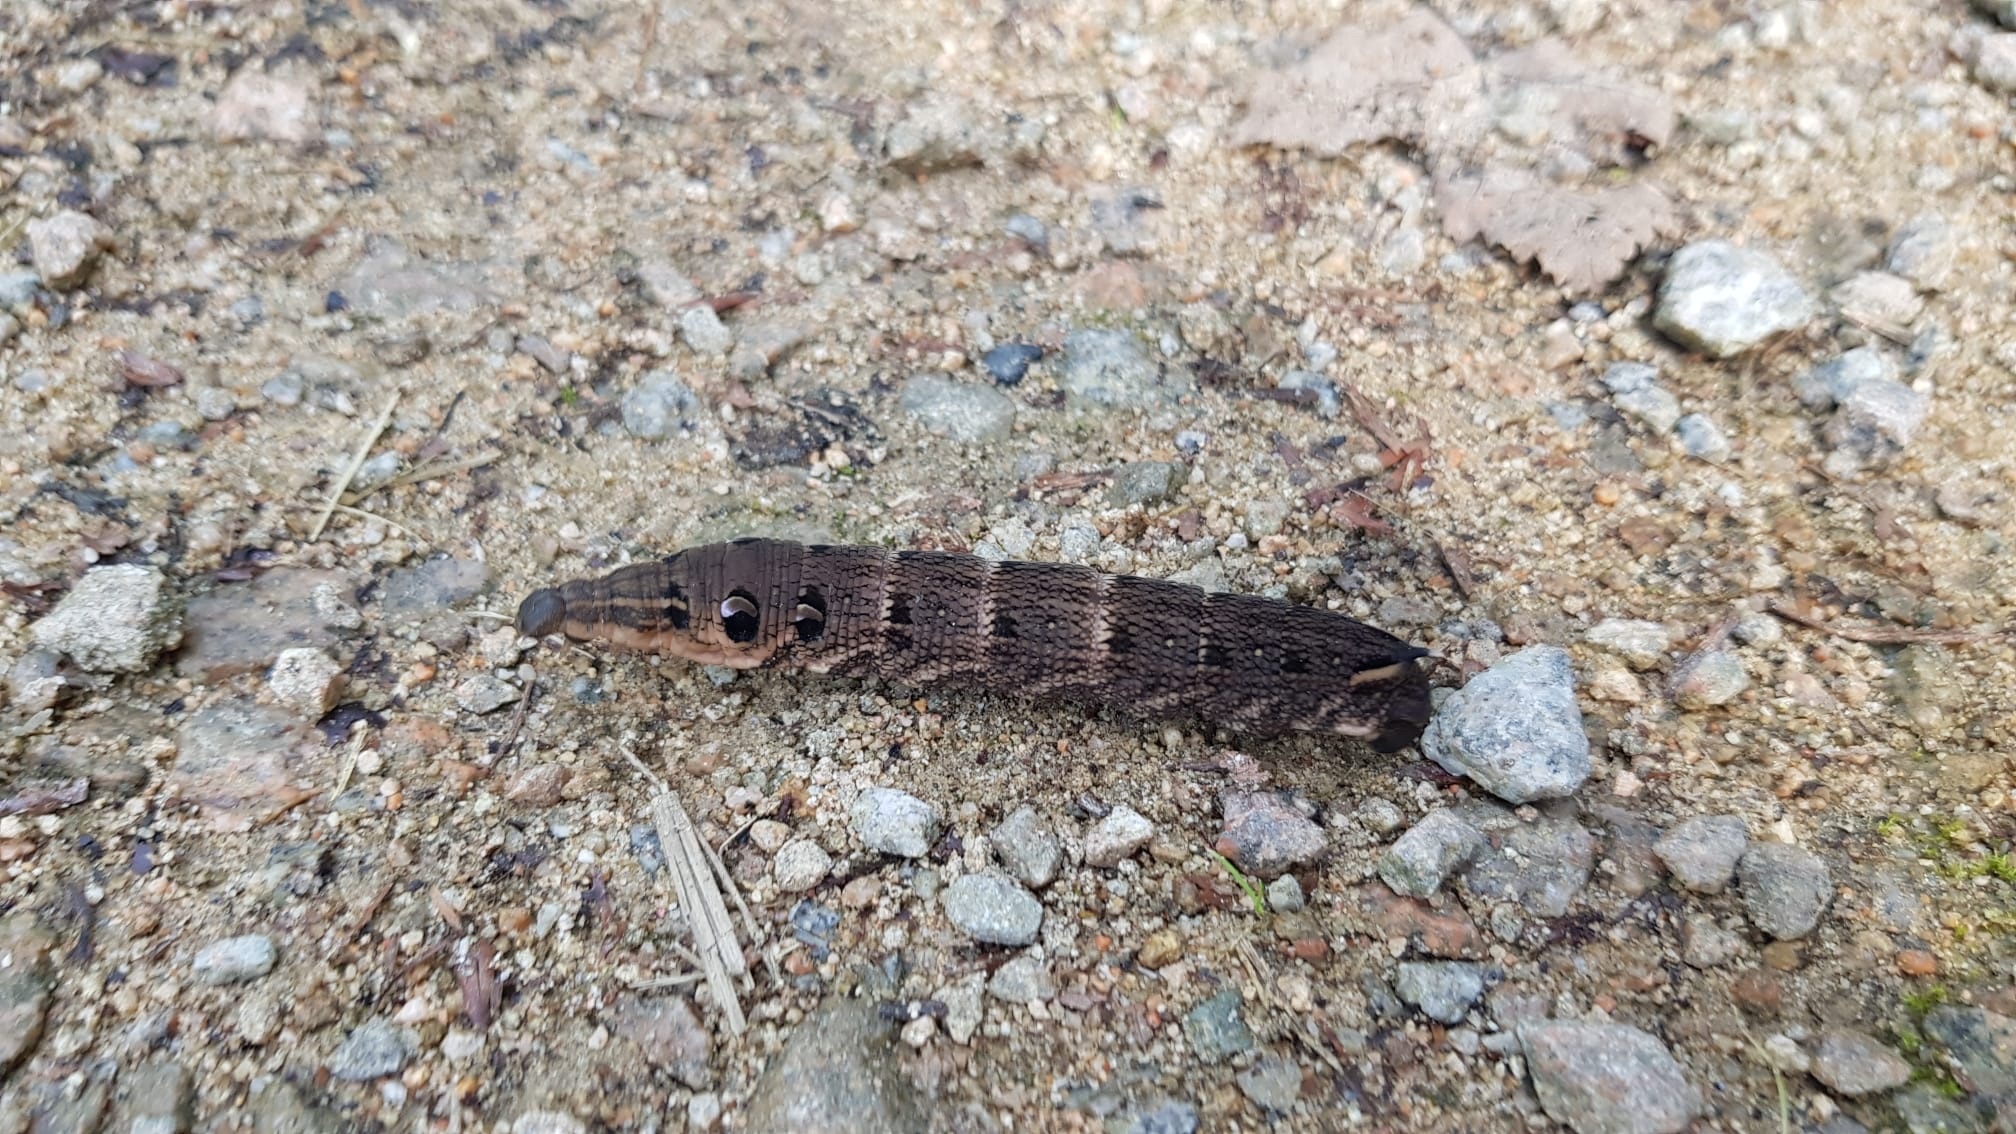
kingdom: Animalia
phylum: Arthropoda
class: Insecta
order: Lepidoptera
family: Sphingidae
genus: Deilephila
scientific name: Deilephila elpenor
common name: Elephant hawk-moth
